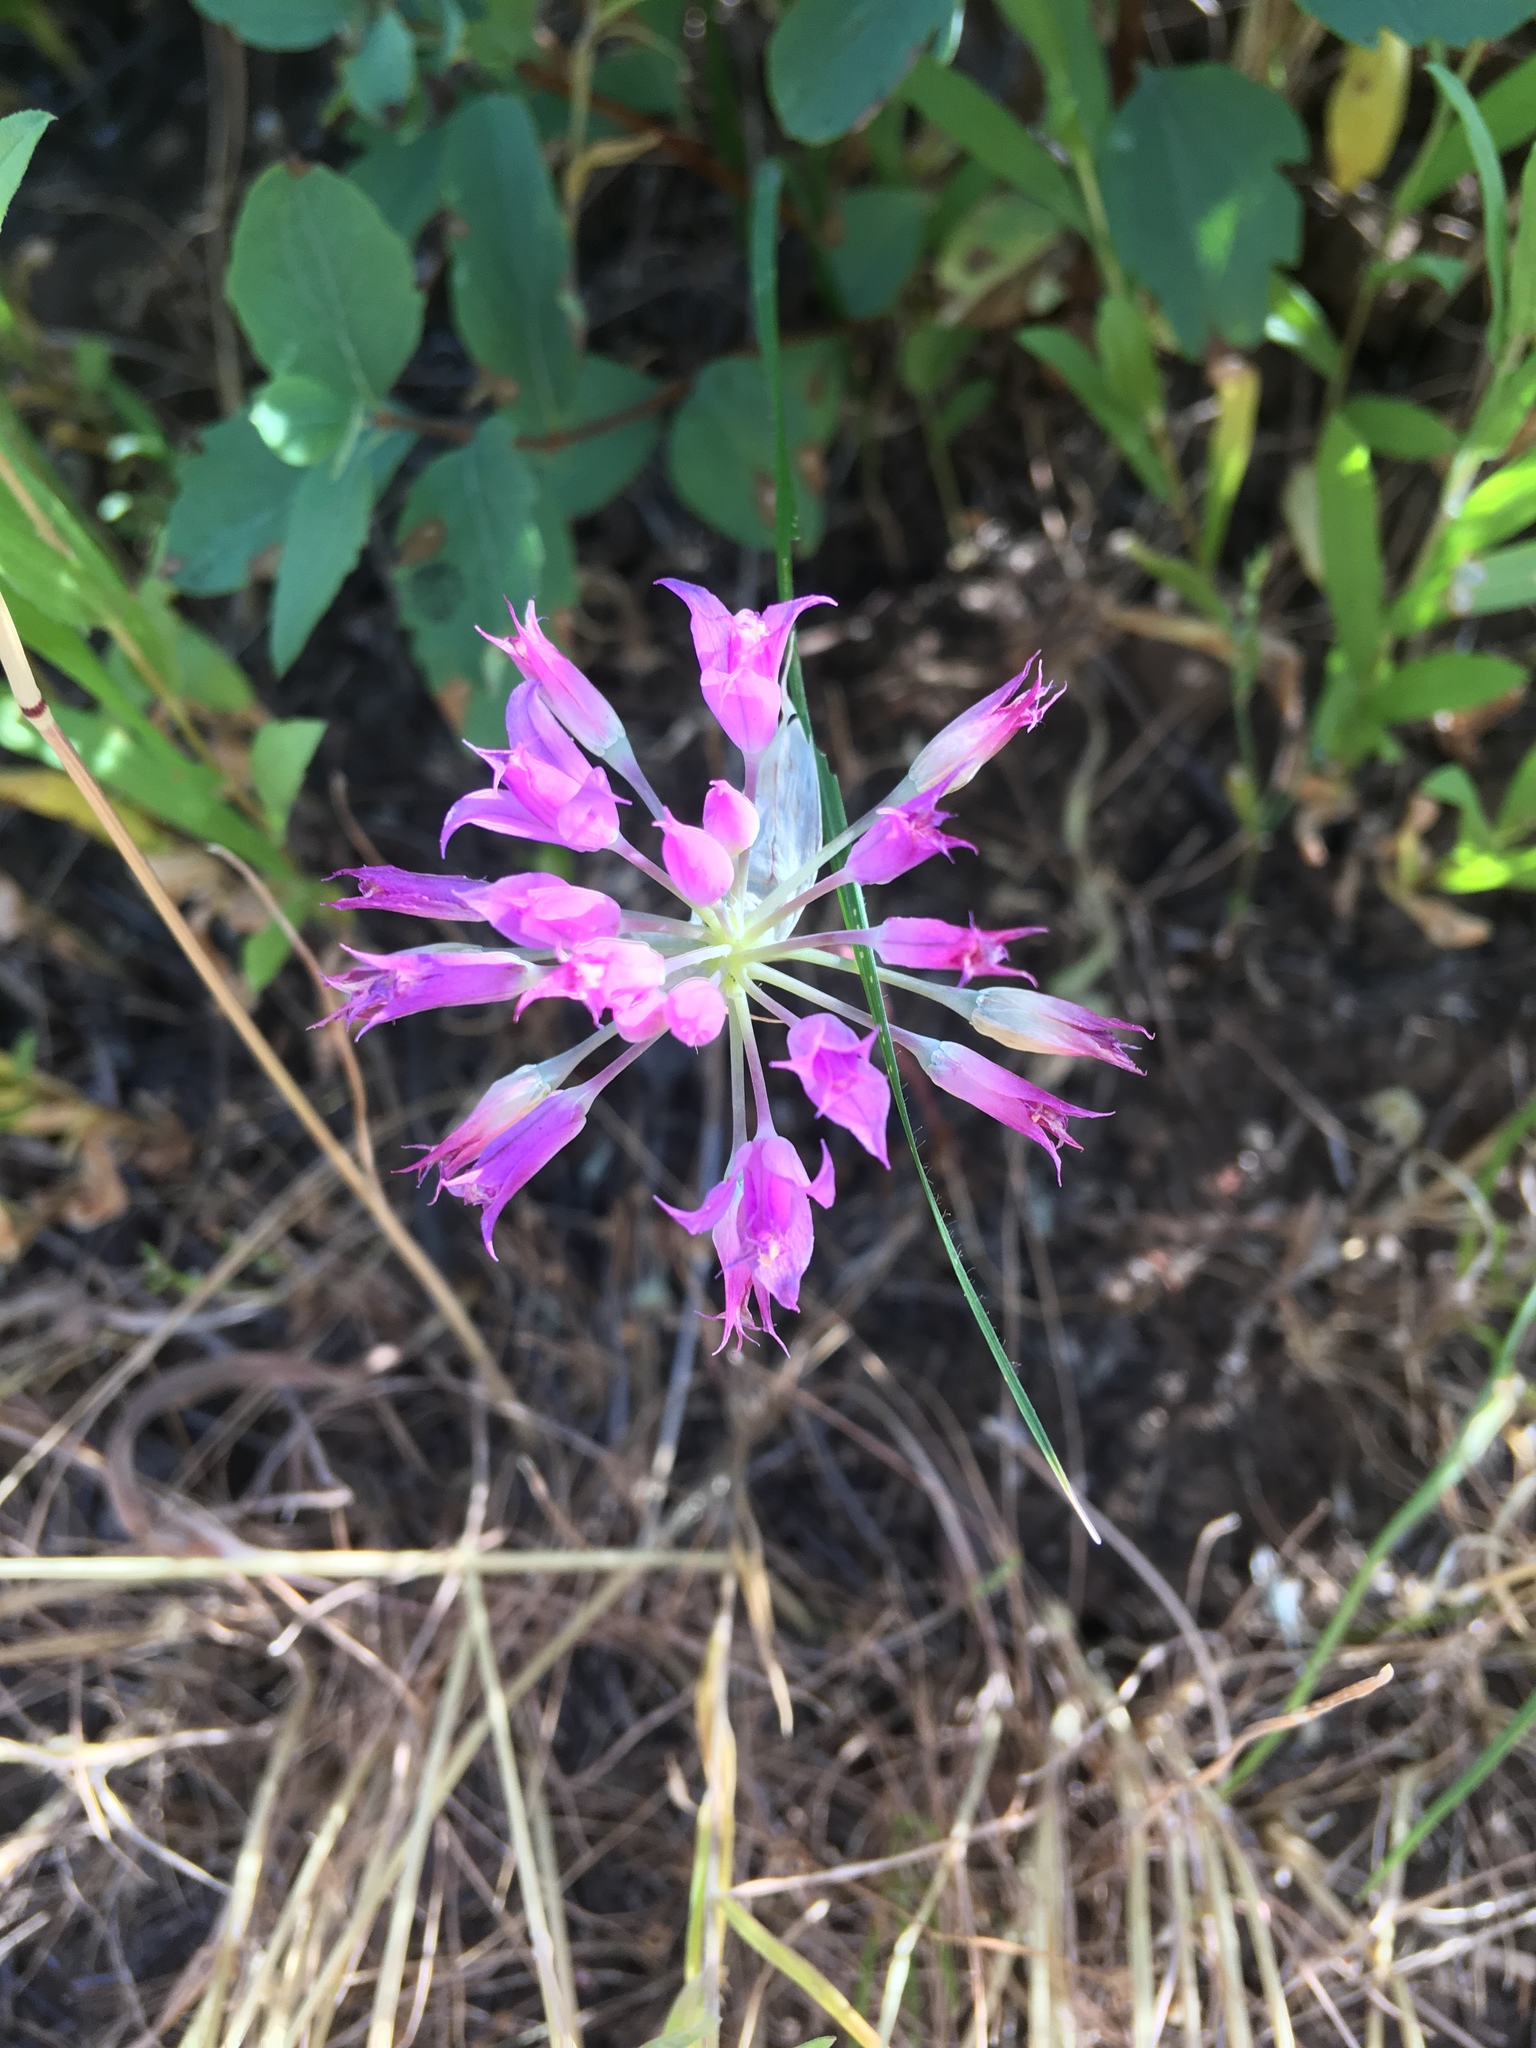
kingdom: Plantae
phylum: Tracheophyta
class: Liliopsida
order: Asparagales
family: Amaryllidaceae
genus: Allium
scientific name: Allium acuminatum
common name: Hooker's onion
